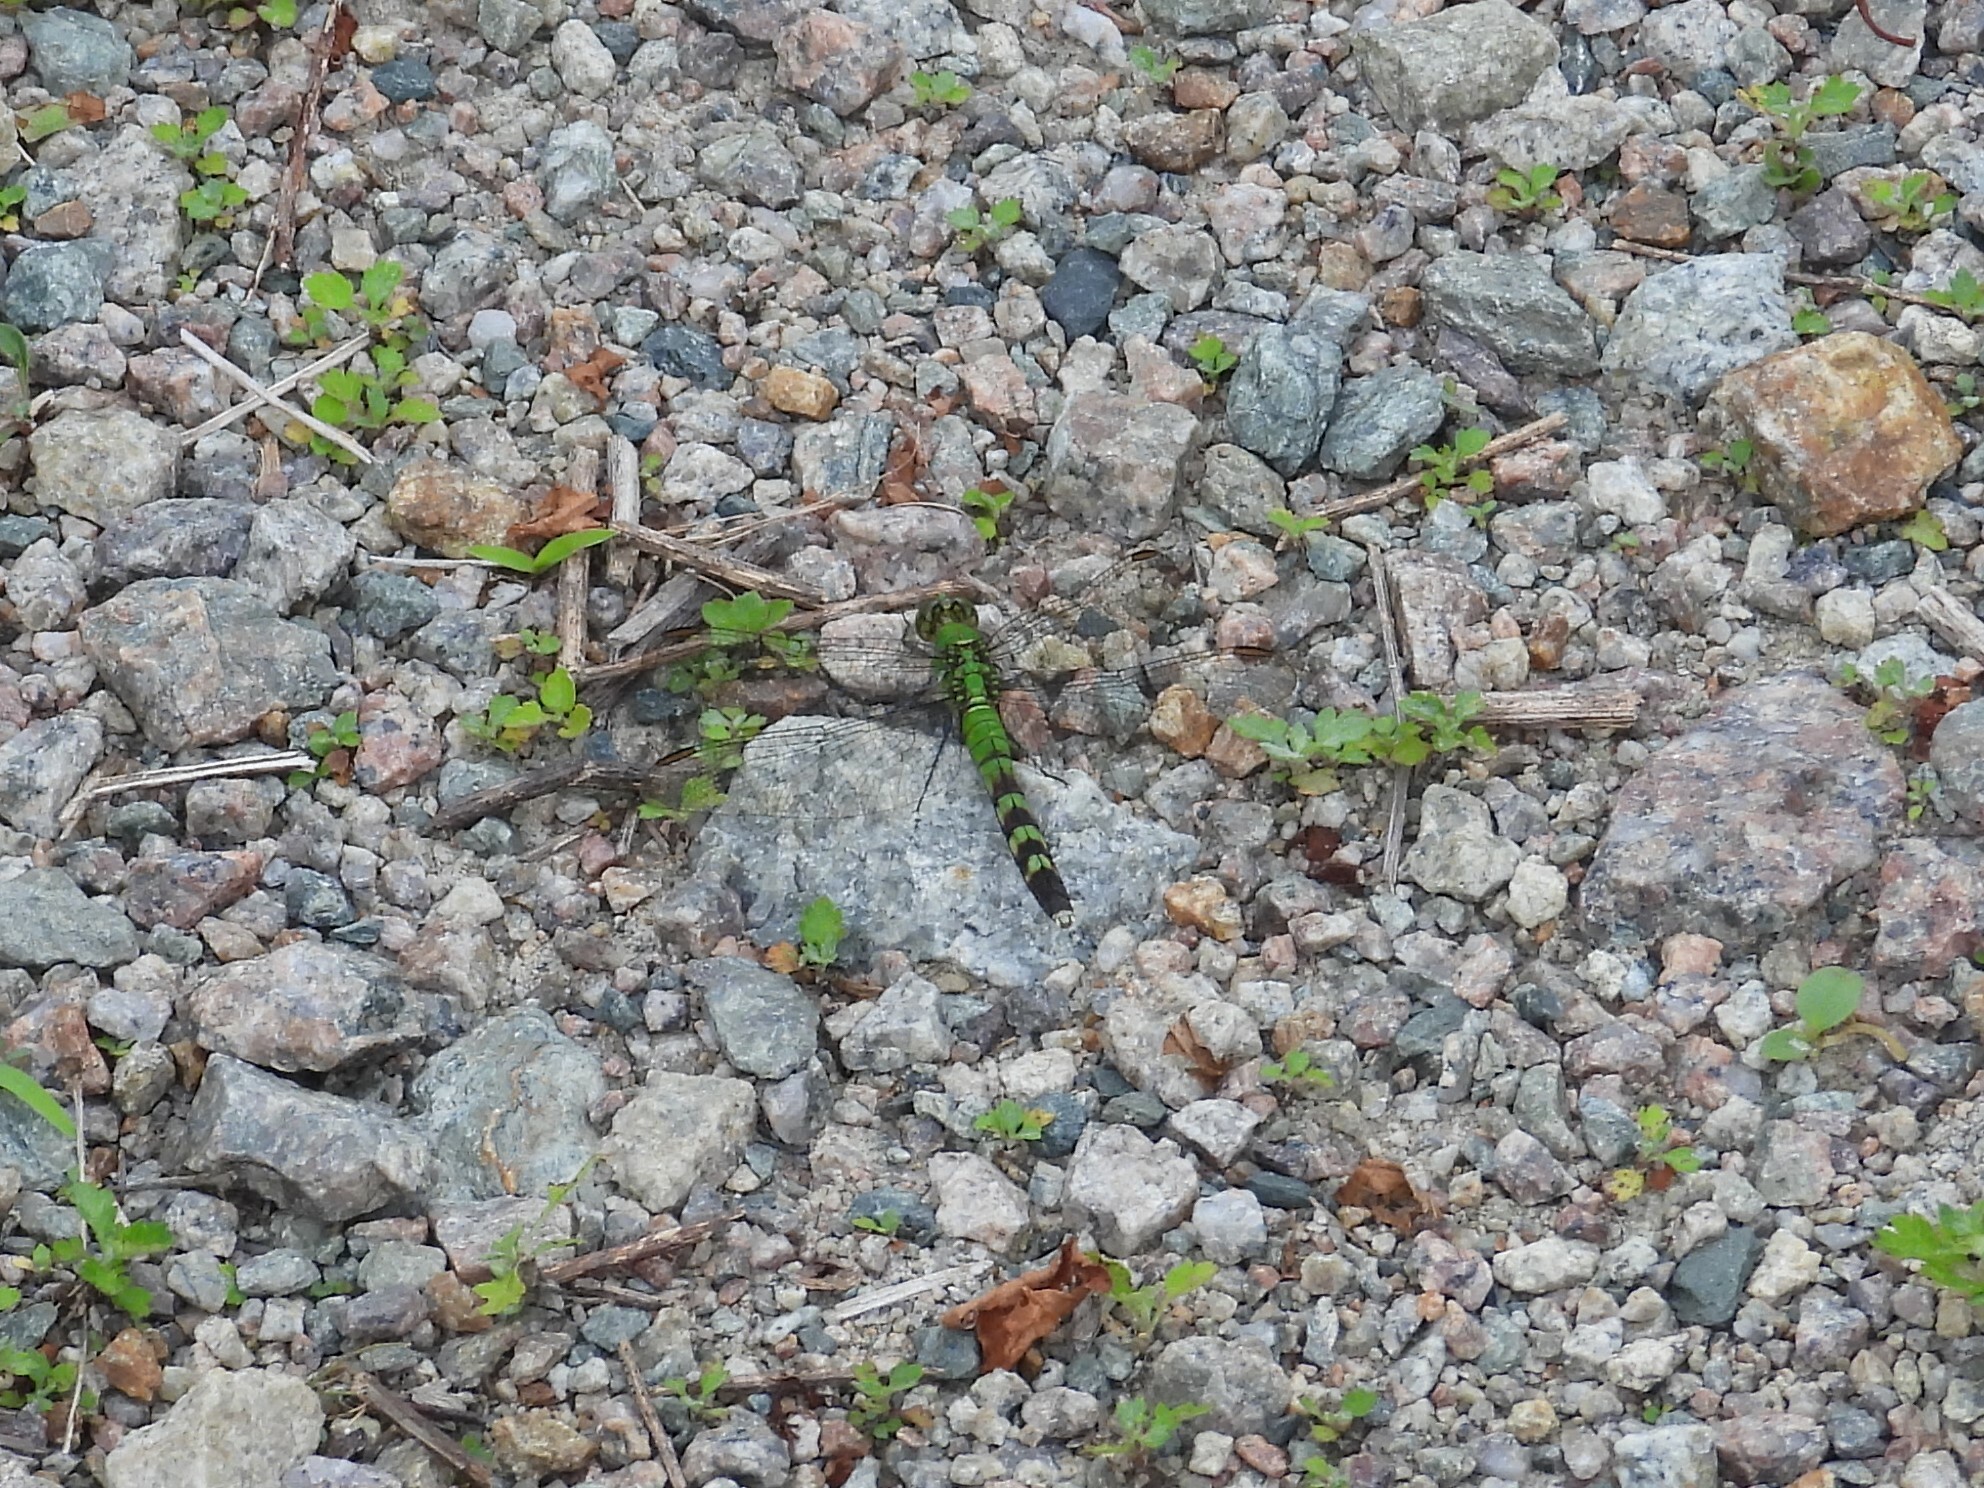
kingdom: Animalia
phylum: Arthropoda
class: Insecta
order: Odonata
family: Libellulidae
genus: Erythemis
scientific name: Erythemis simplicicollis
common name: Eastern pondhawk
